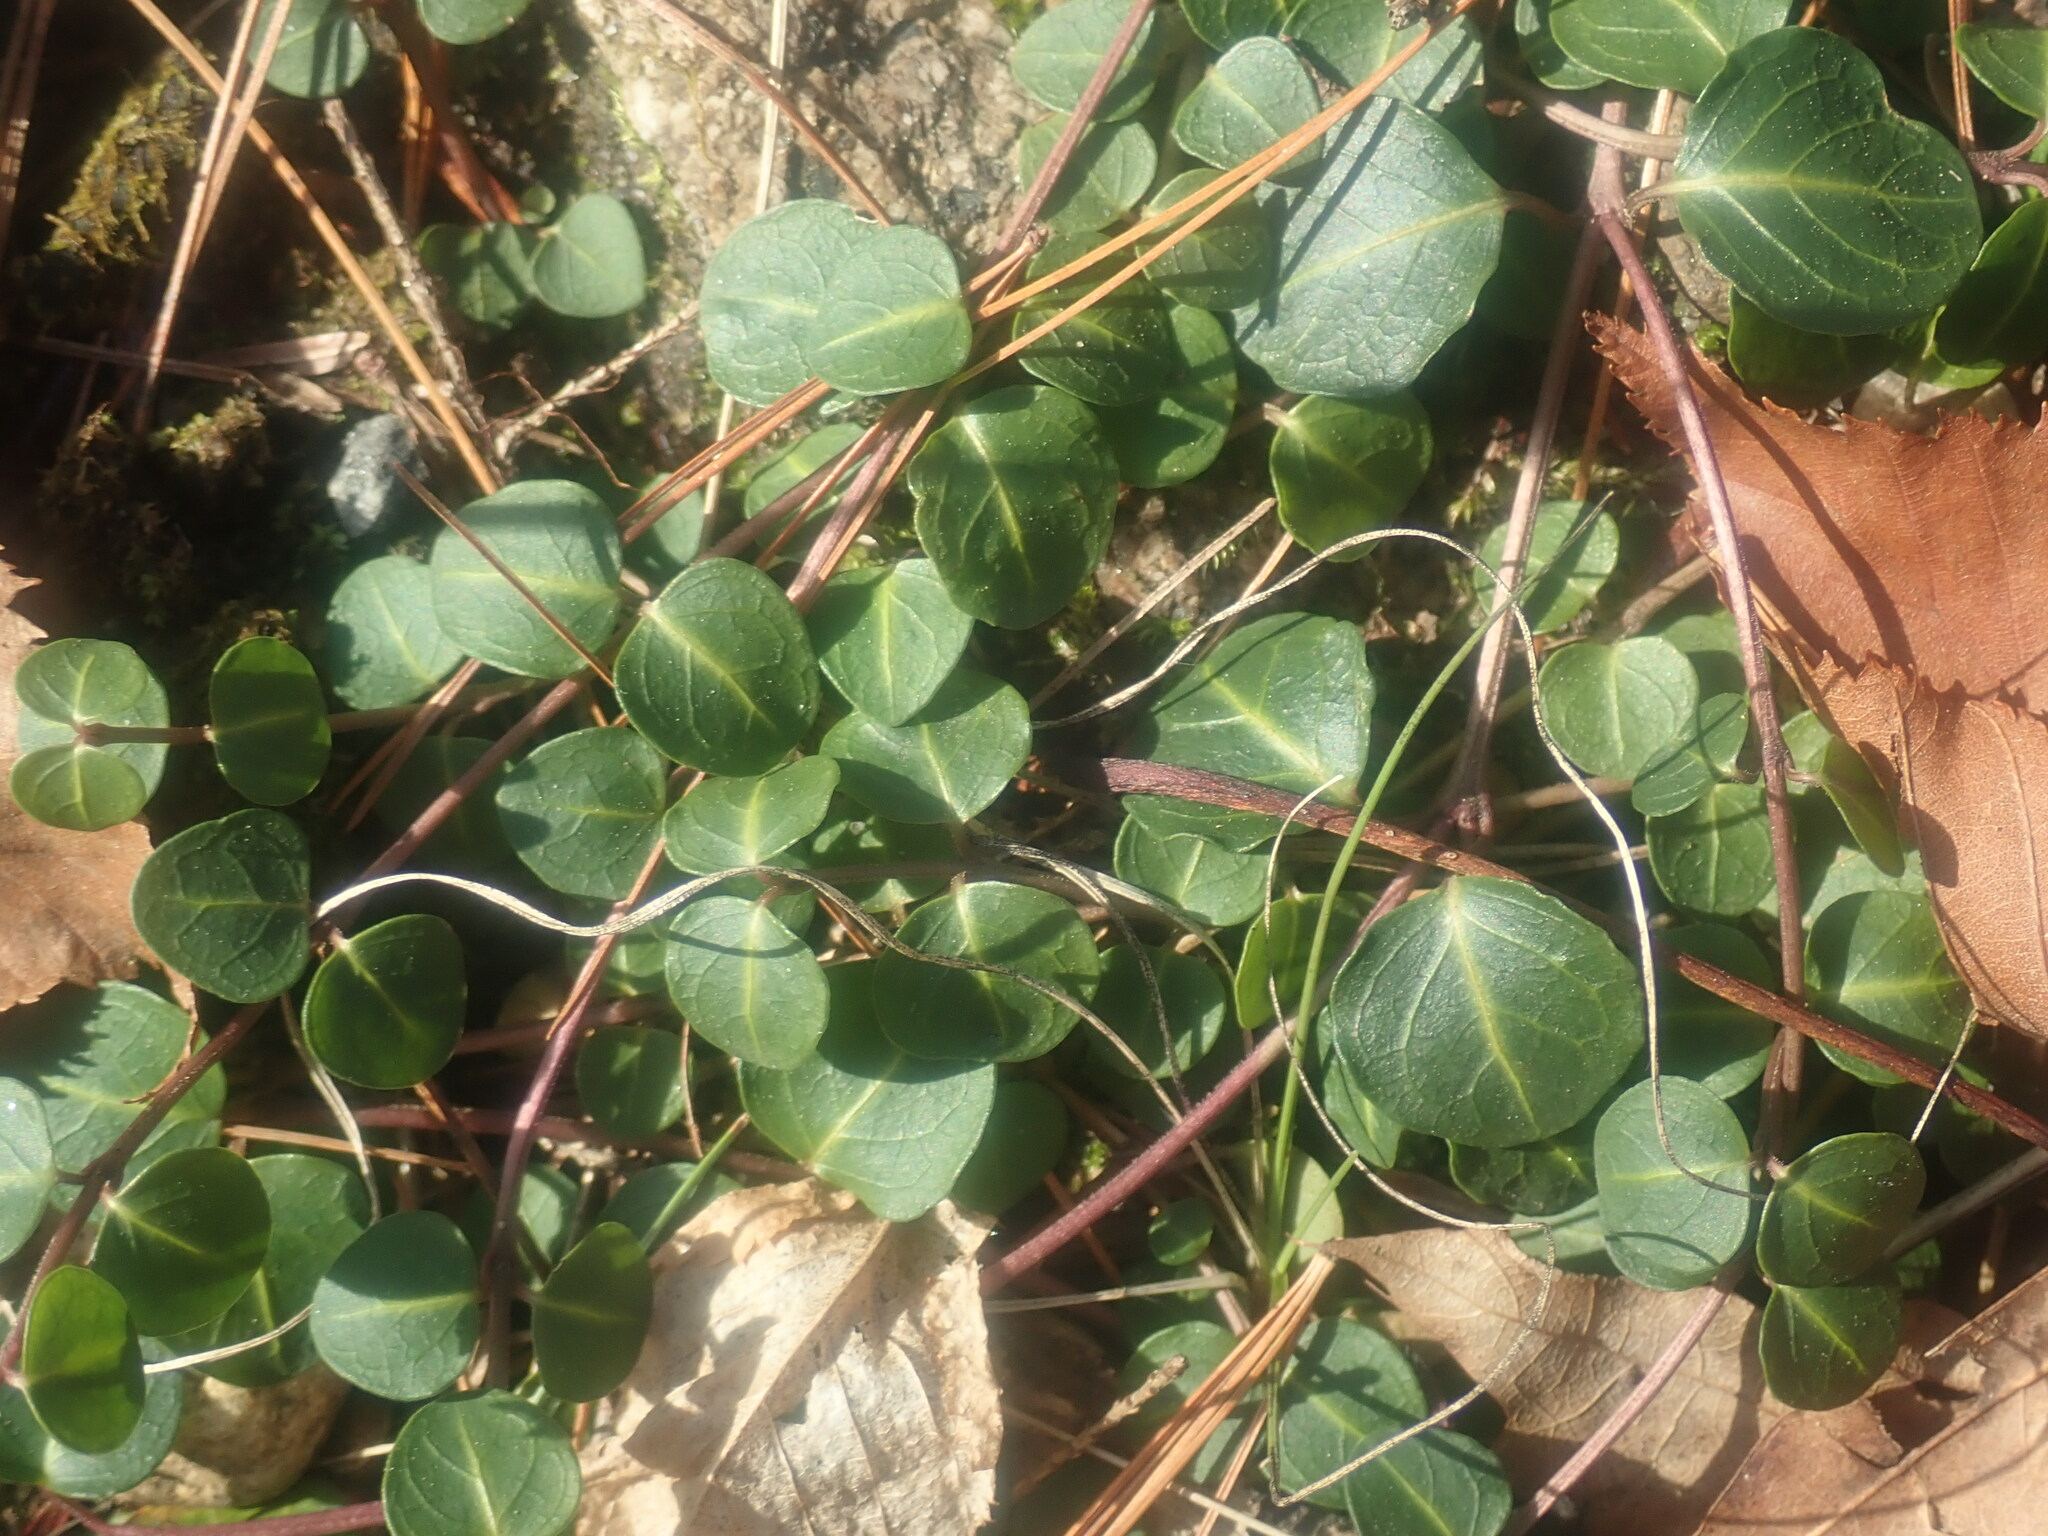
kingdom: Plantae
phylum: Tracheophyta
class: Magnoliopsida
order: Gentianales
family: Rubiaceae
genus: Mitchella
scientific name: Mitchella repens
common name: Partridge-berry
